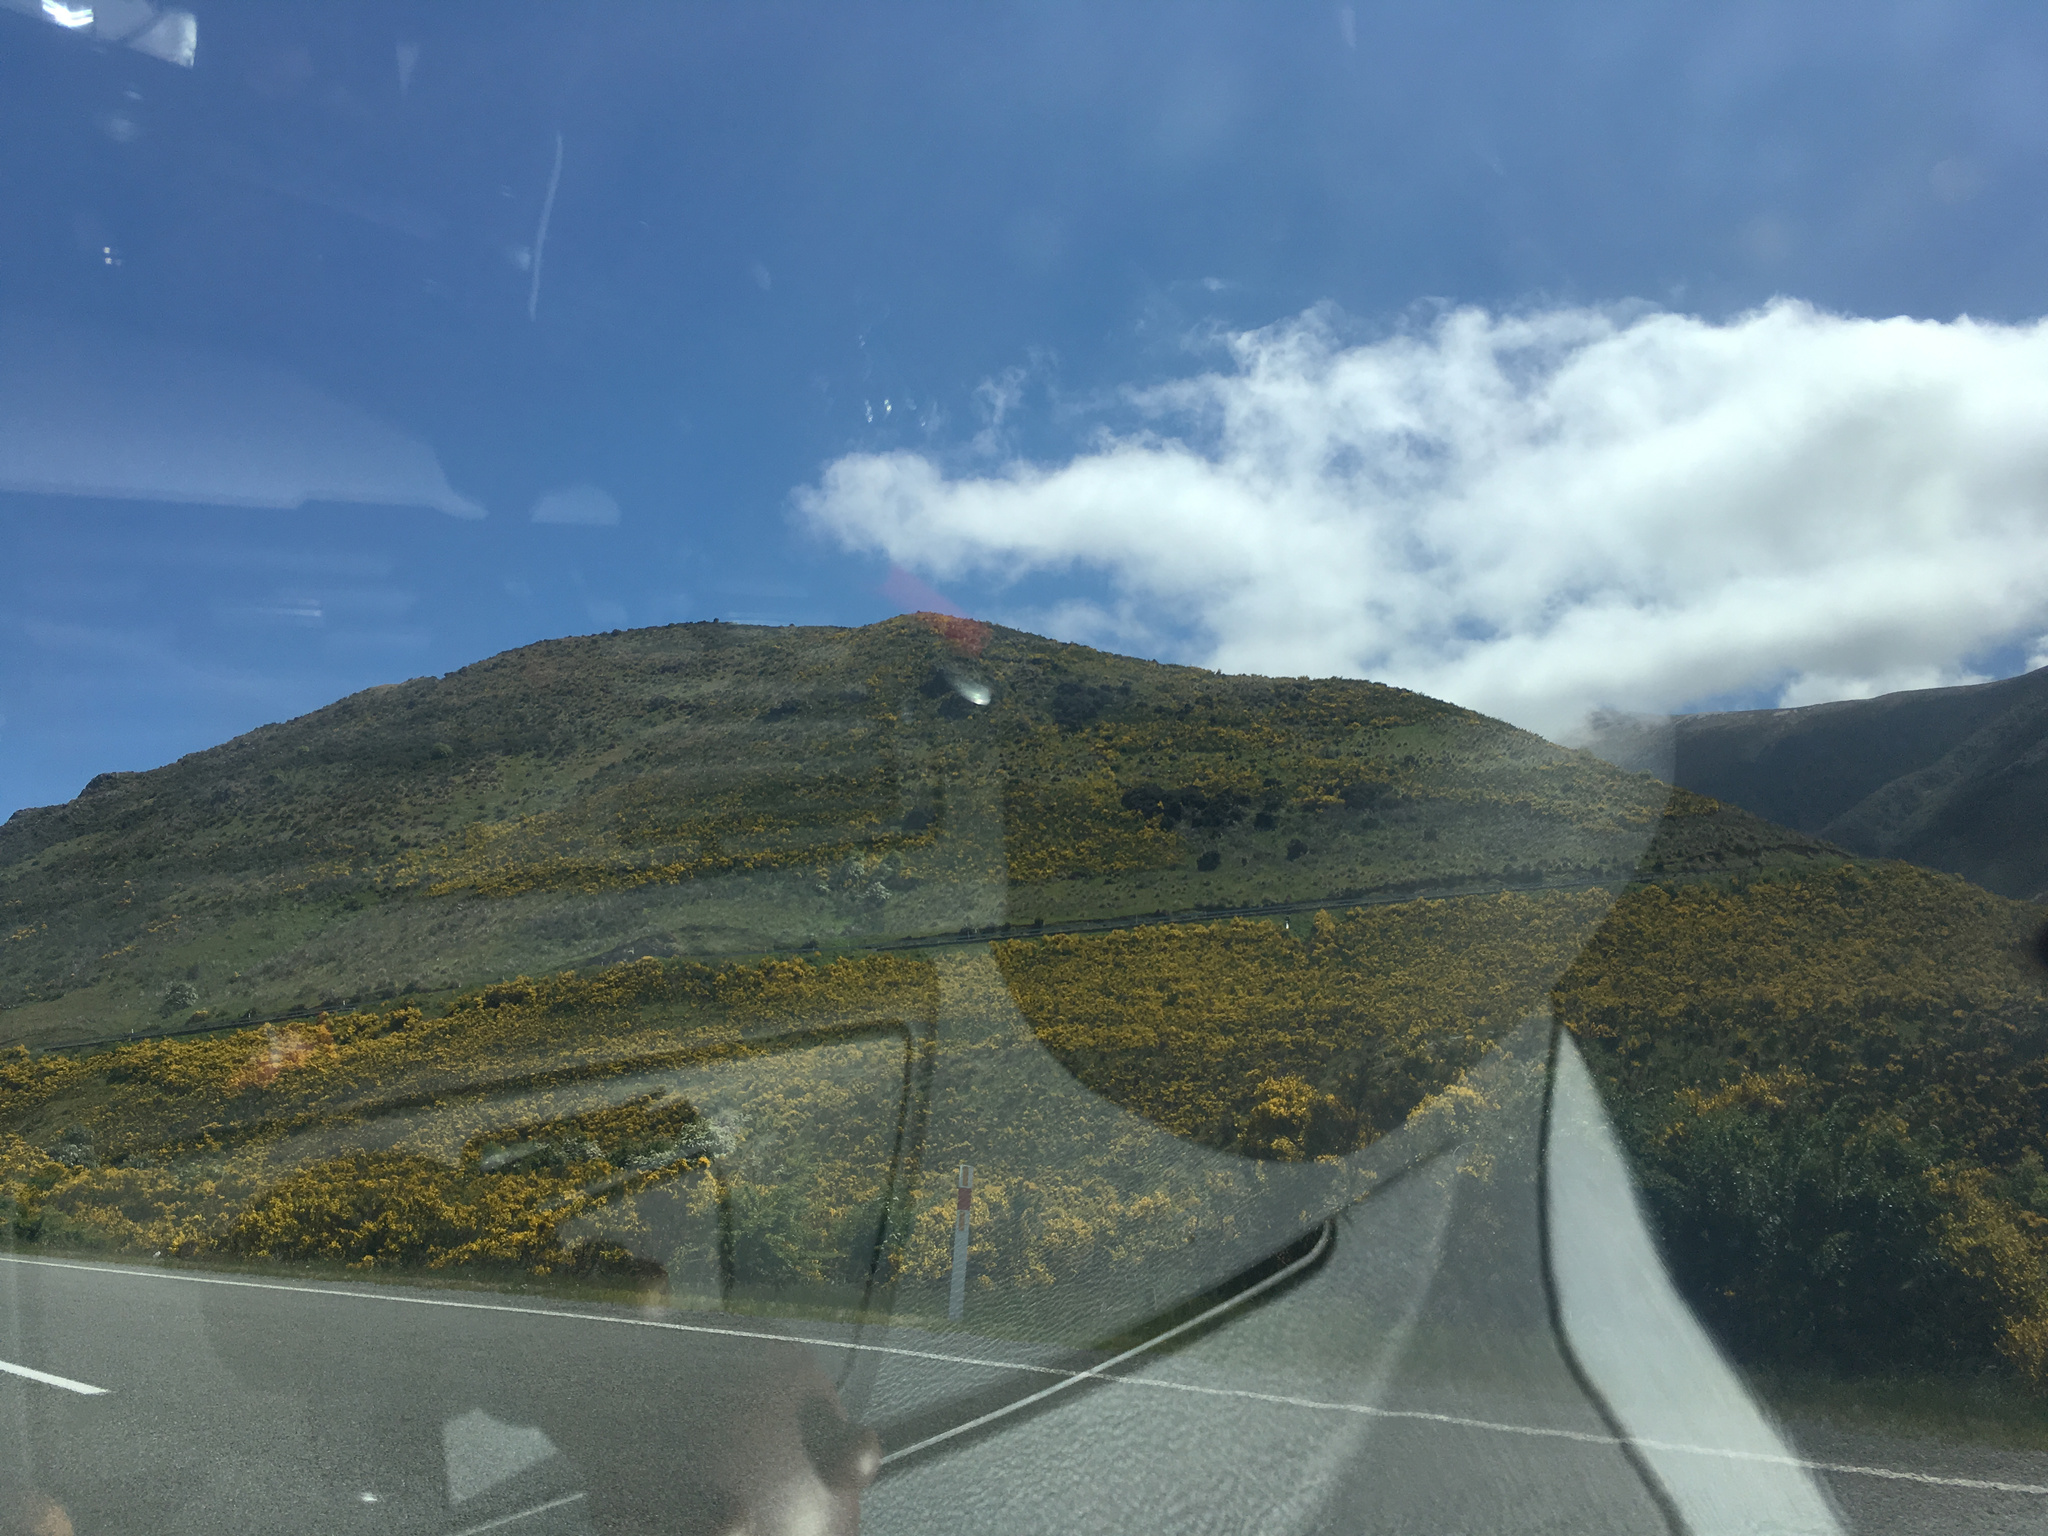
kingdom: Plantae
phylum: Tracheophyta
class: Magnoliopsida
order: Fabales
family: Fabaceae
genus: Cytisus
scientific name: Cytisus scoparius
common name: Scotch broom
